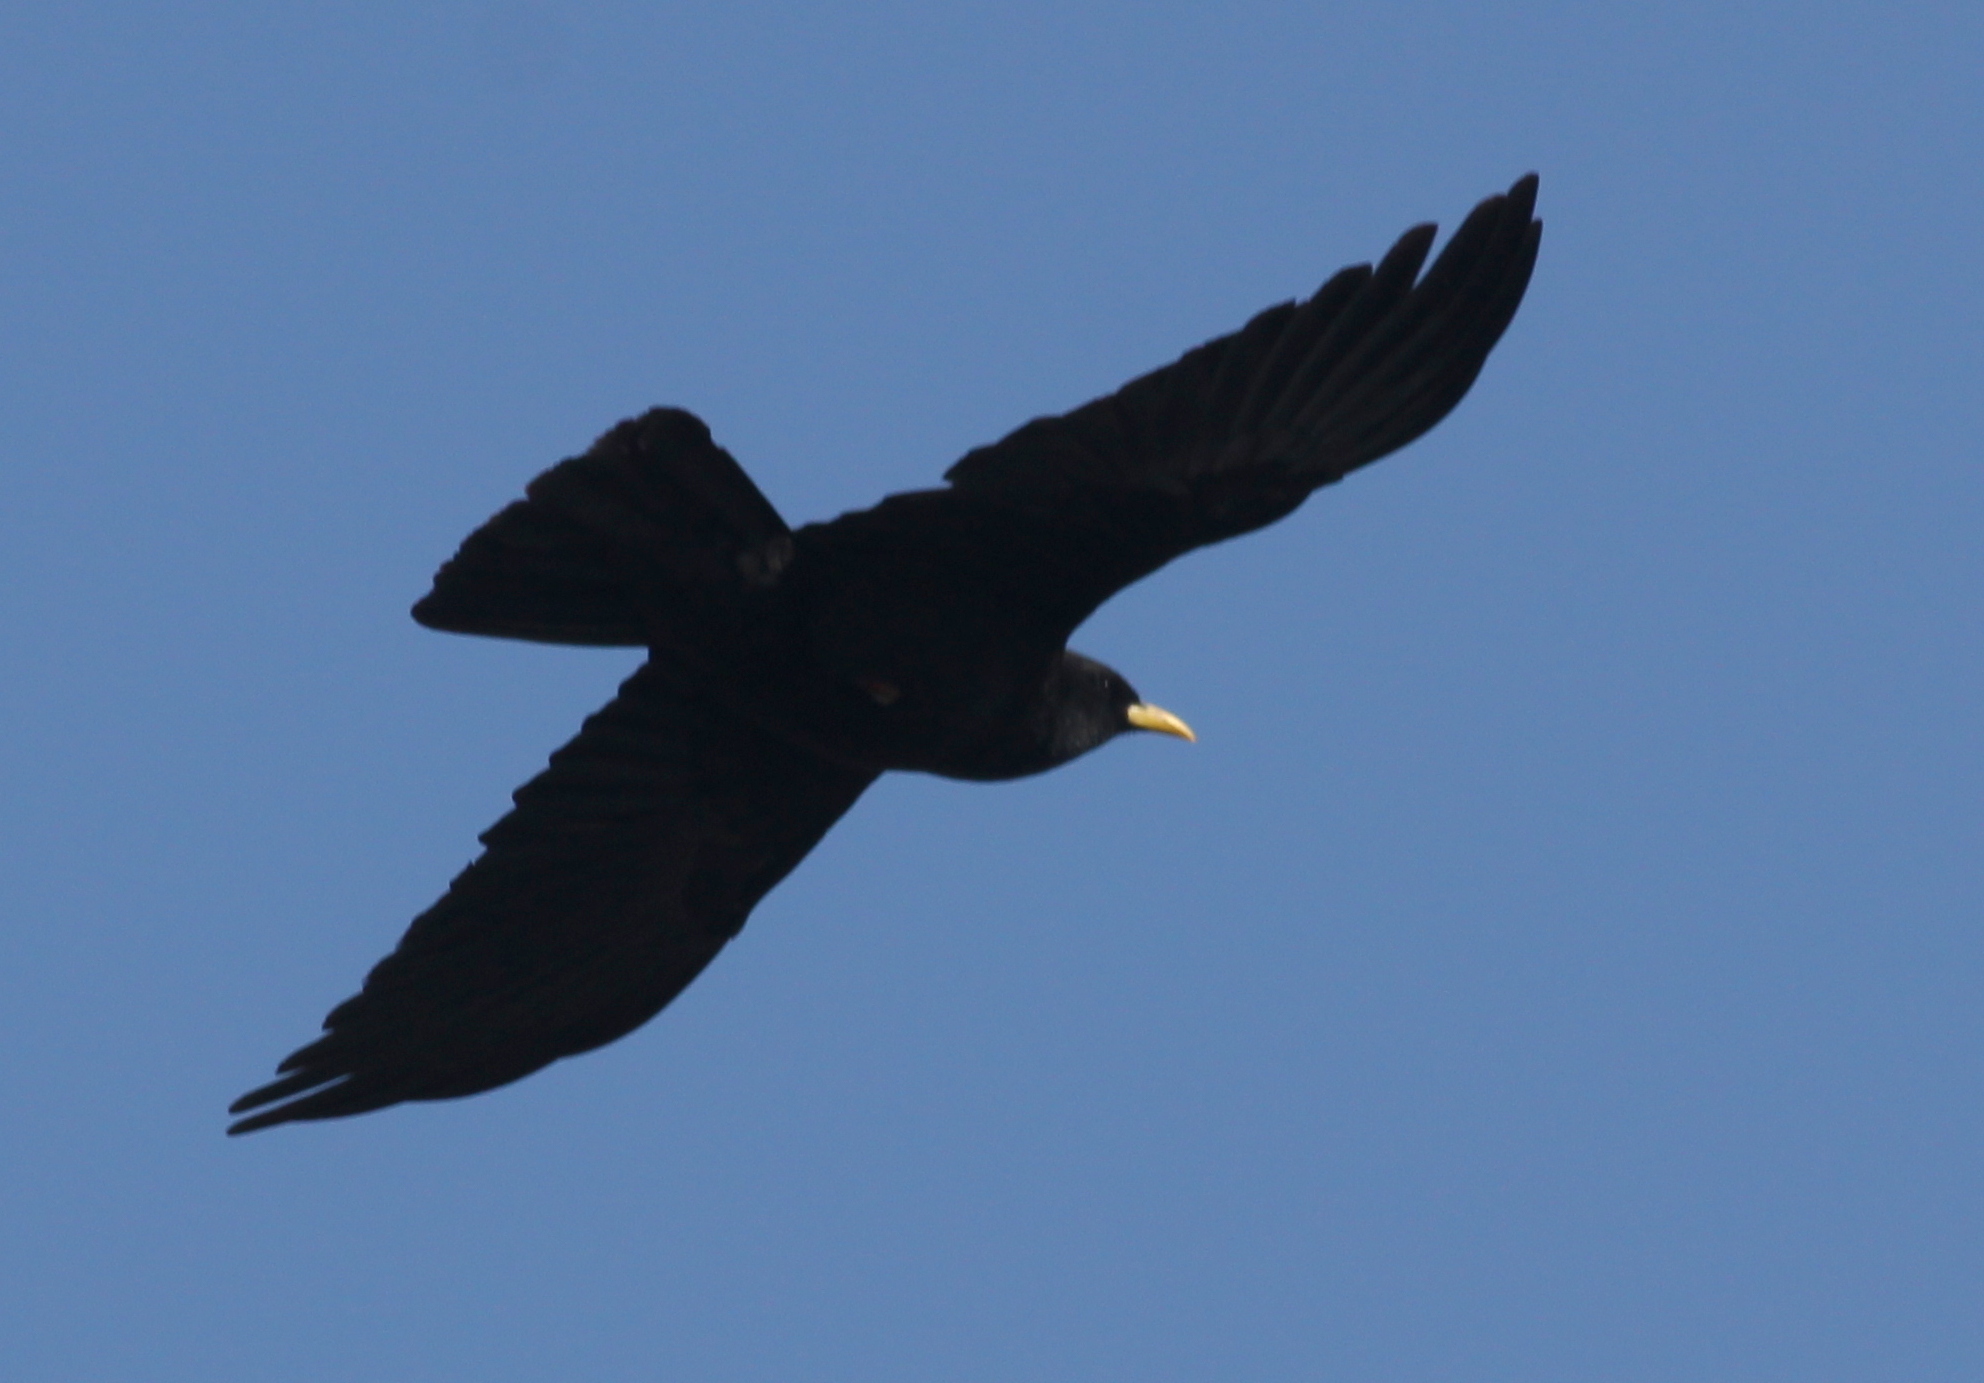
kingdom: Animalia
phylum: Chordata
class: Aves
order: Passeriformes
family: Corvidae
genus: Pyrrhocorax
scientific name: Pyrrhocorax graculus
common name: Alpine chough
